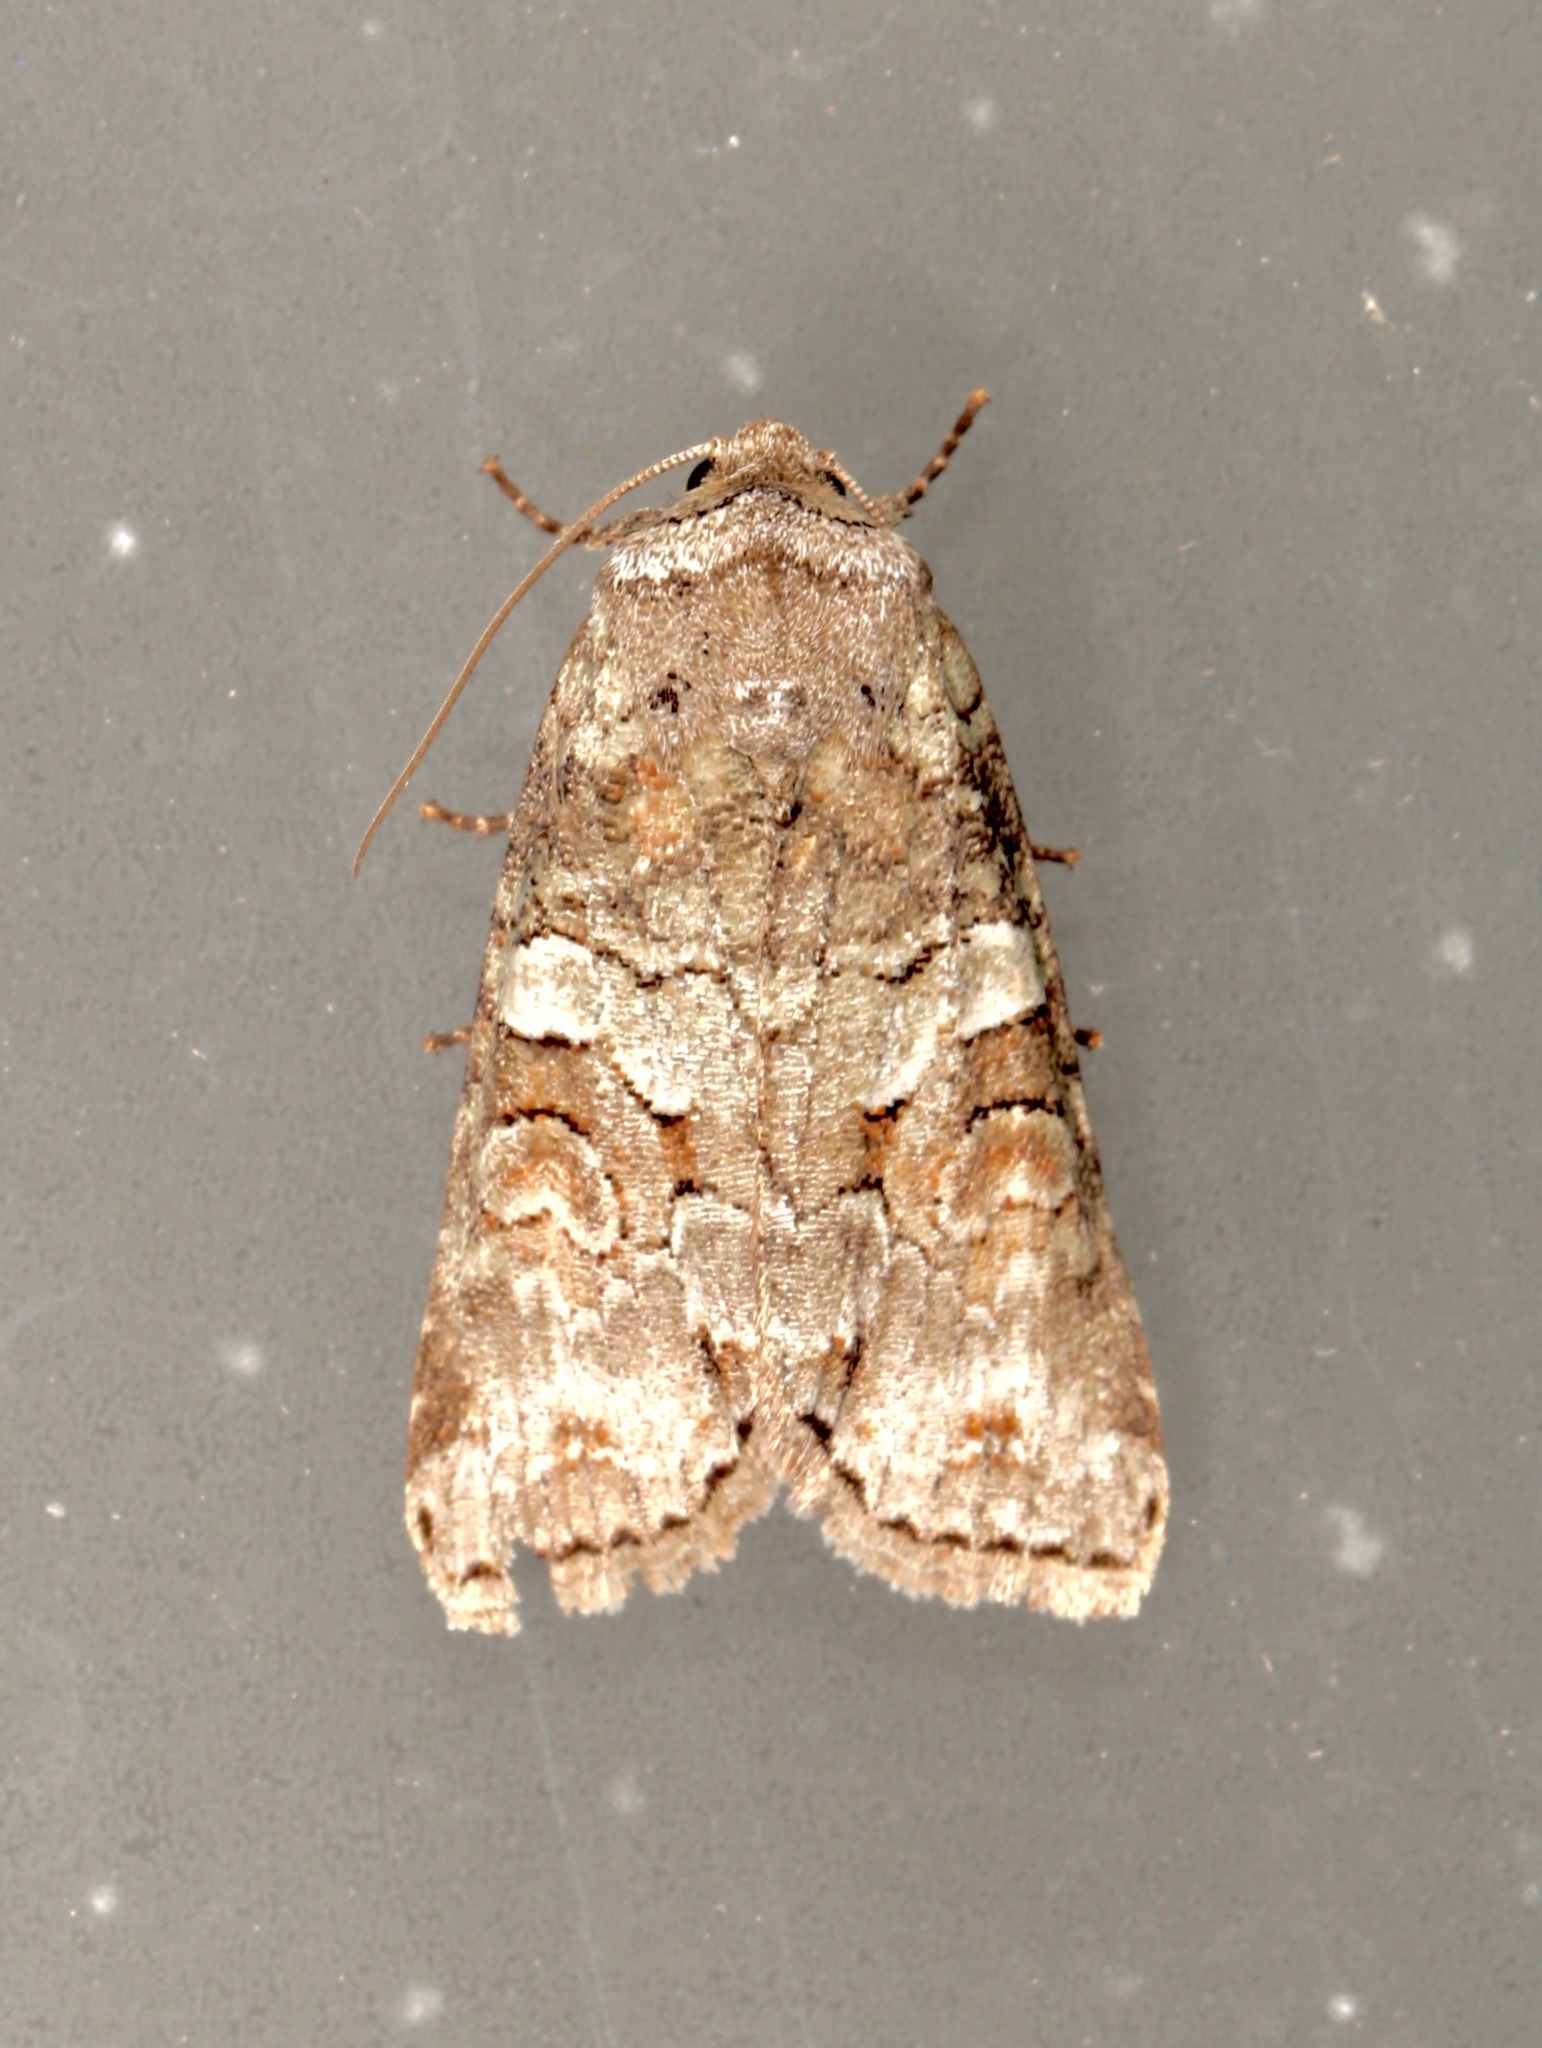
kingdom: Animalia
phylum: Arthropoda
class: Insecta
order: Lepidoptera
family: Noctuidae
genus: Egira
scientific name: Egira alternans
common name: Alternate woodling
